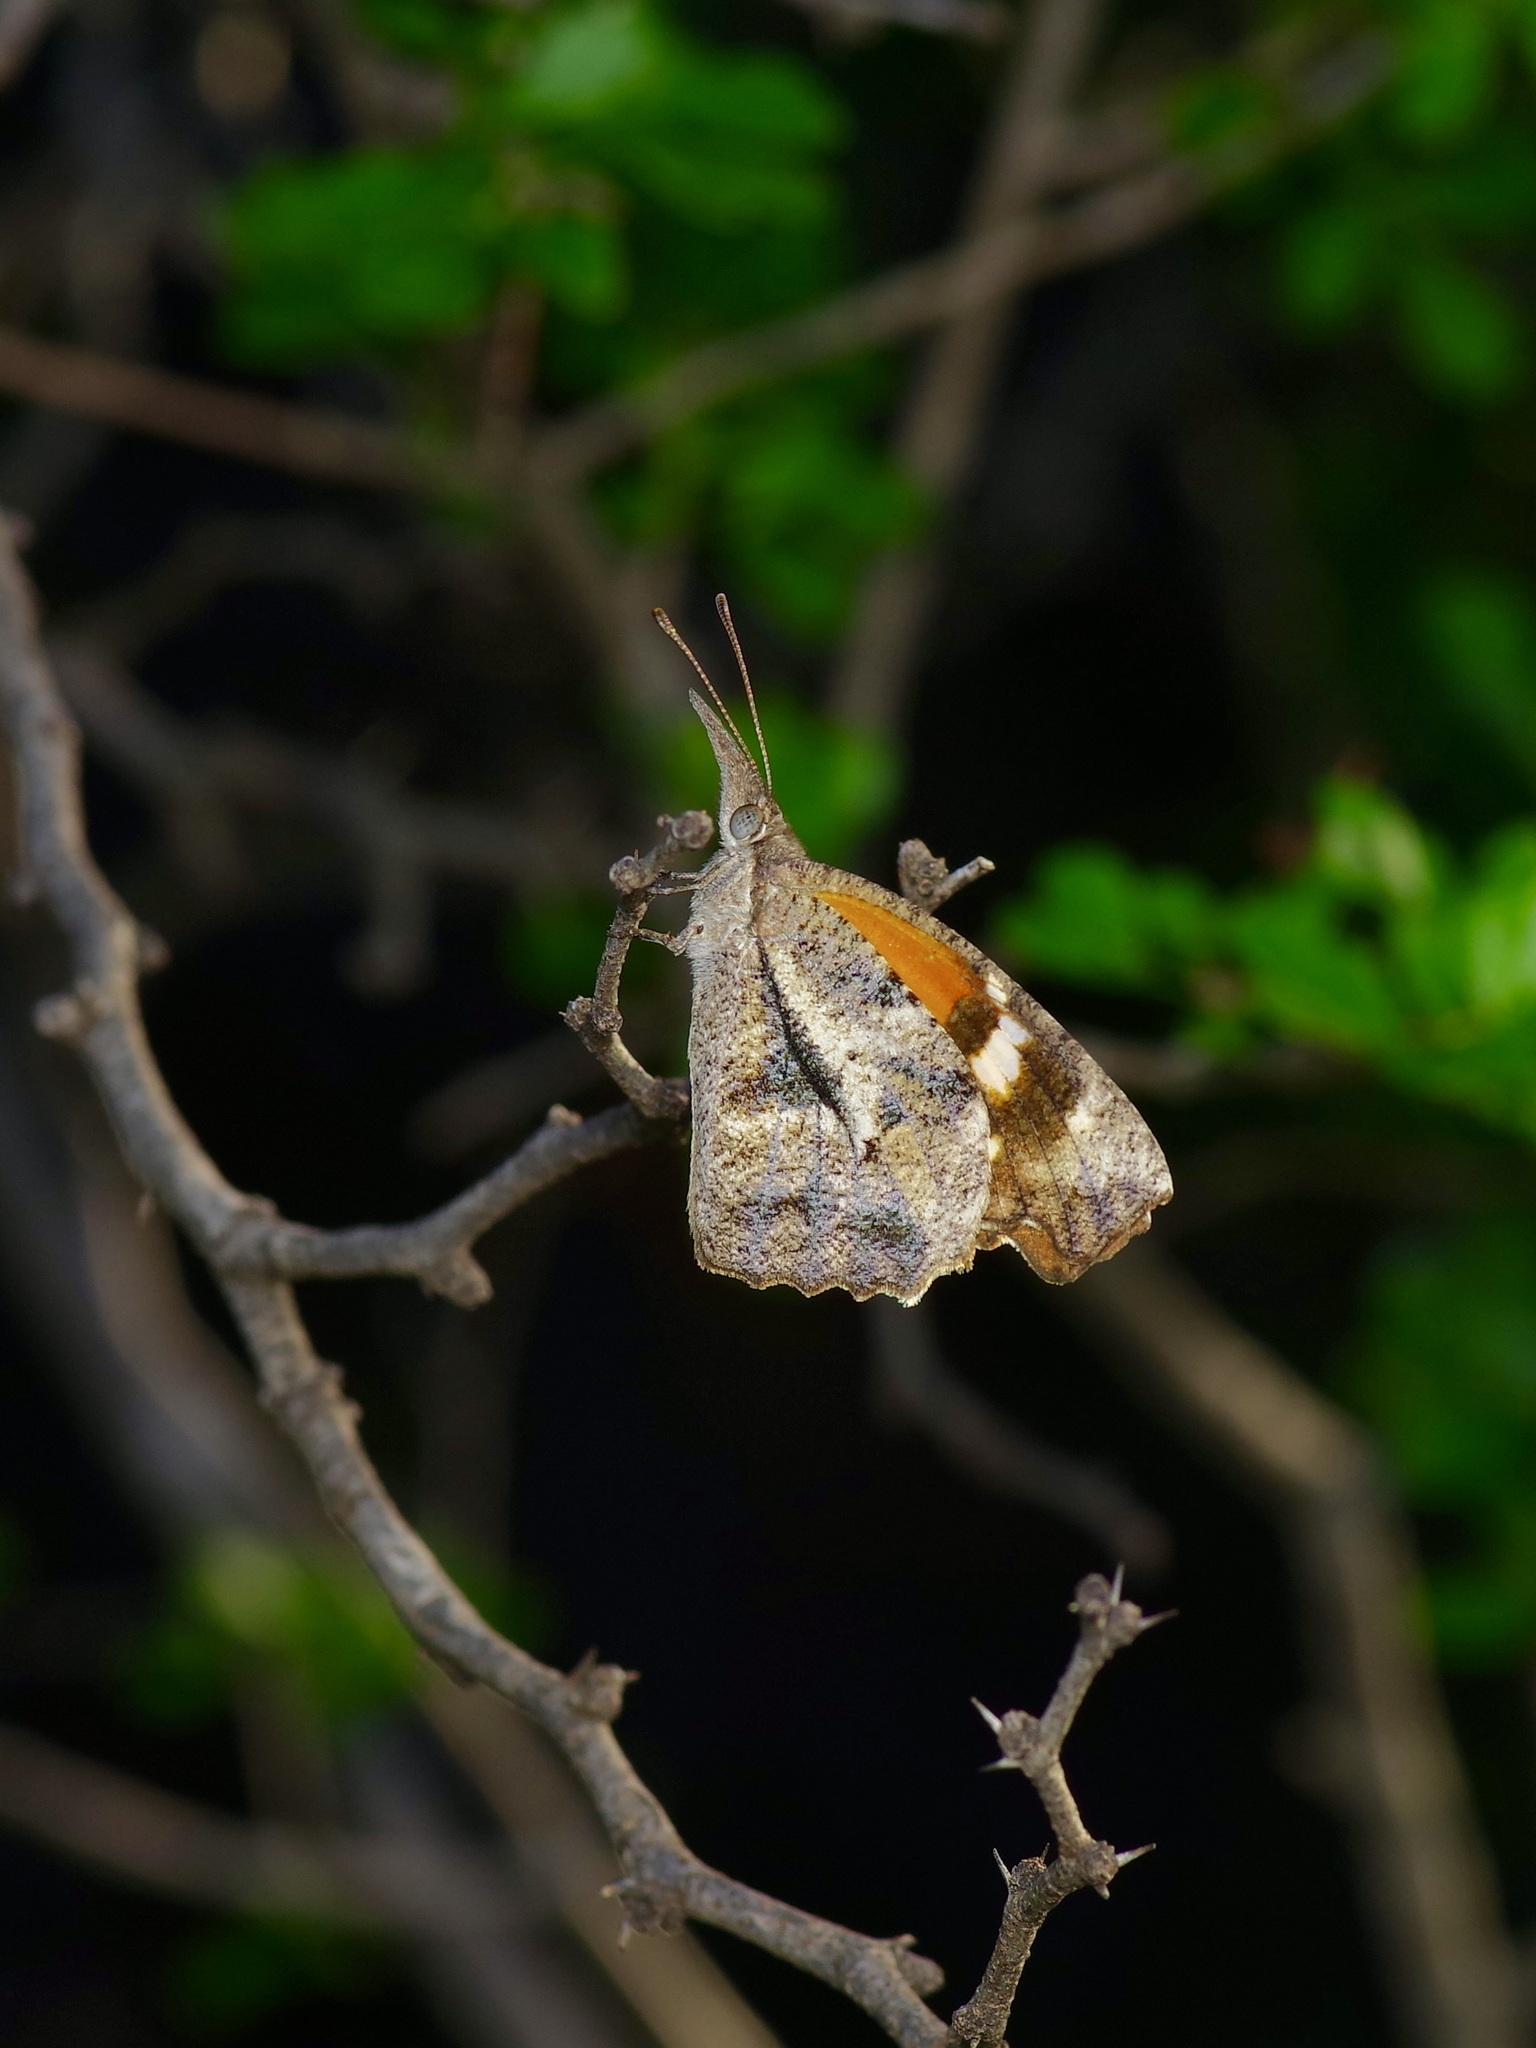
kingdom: Animalia
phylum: Arthropoda
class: Insecta
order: Lepidoptera
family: Nymphalidae
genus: Libytheana
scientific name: Libytheana carinenta
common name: American snout
